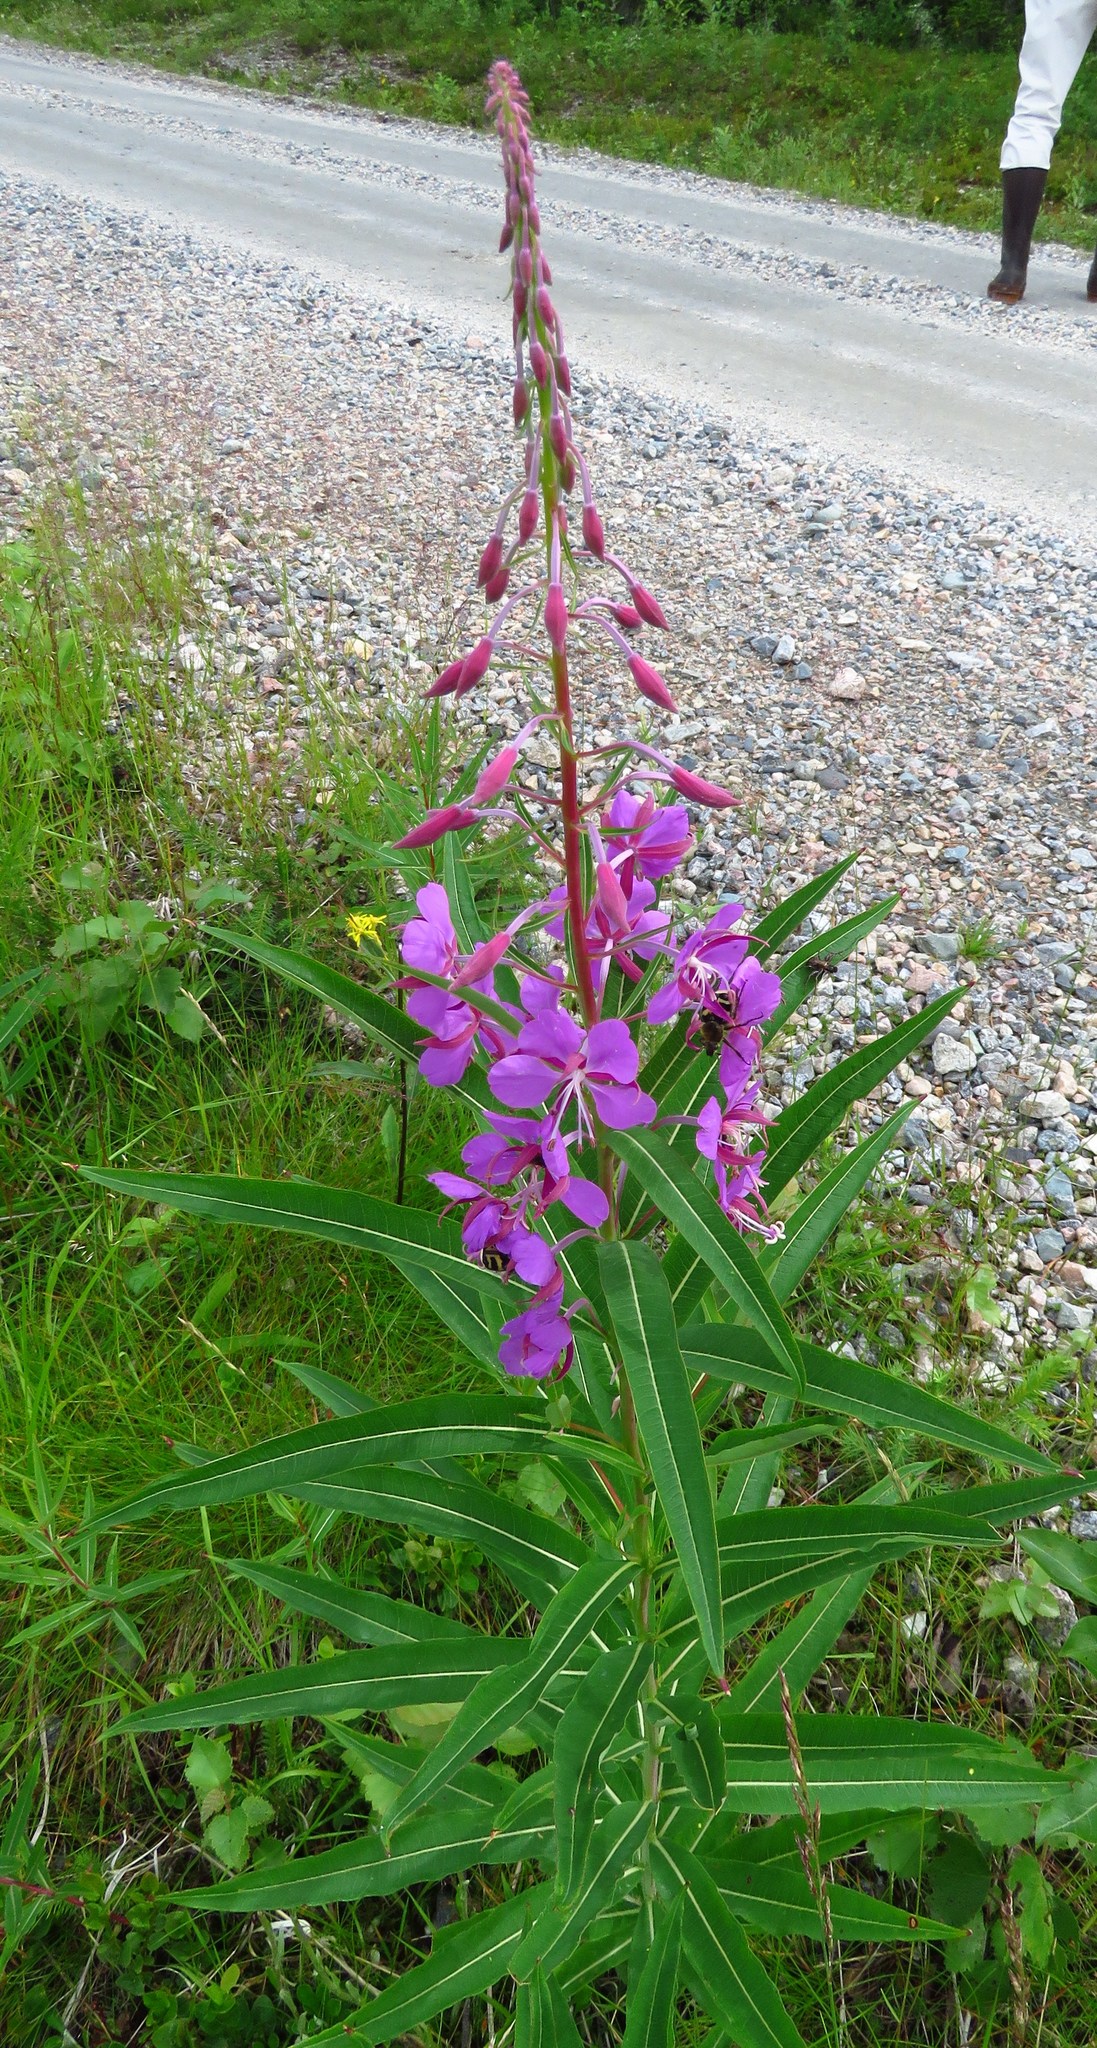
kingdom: Plantae
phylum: Tracheophyta
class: Magnoliopsida
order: Myrtales
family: Onagraceae
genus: Chamaenerion
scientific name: Chamaenerion angustifolium
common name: Fireweed
